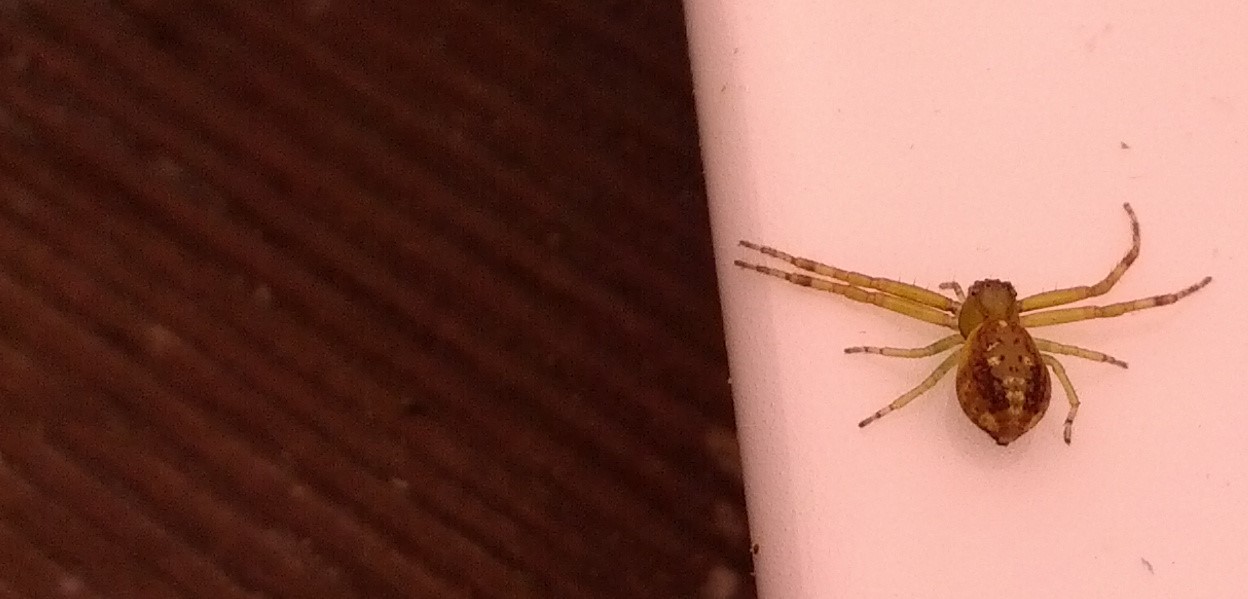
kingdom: Animalia
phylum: Arthropoda
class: Arachnida
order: Araneae
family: Thomisidae
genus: Diaea
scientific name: Diaea ambara
